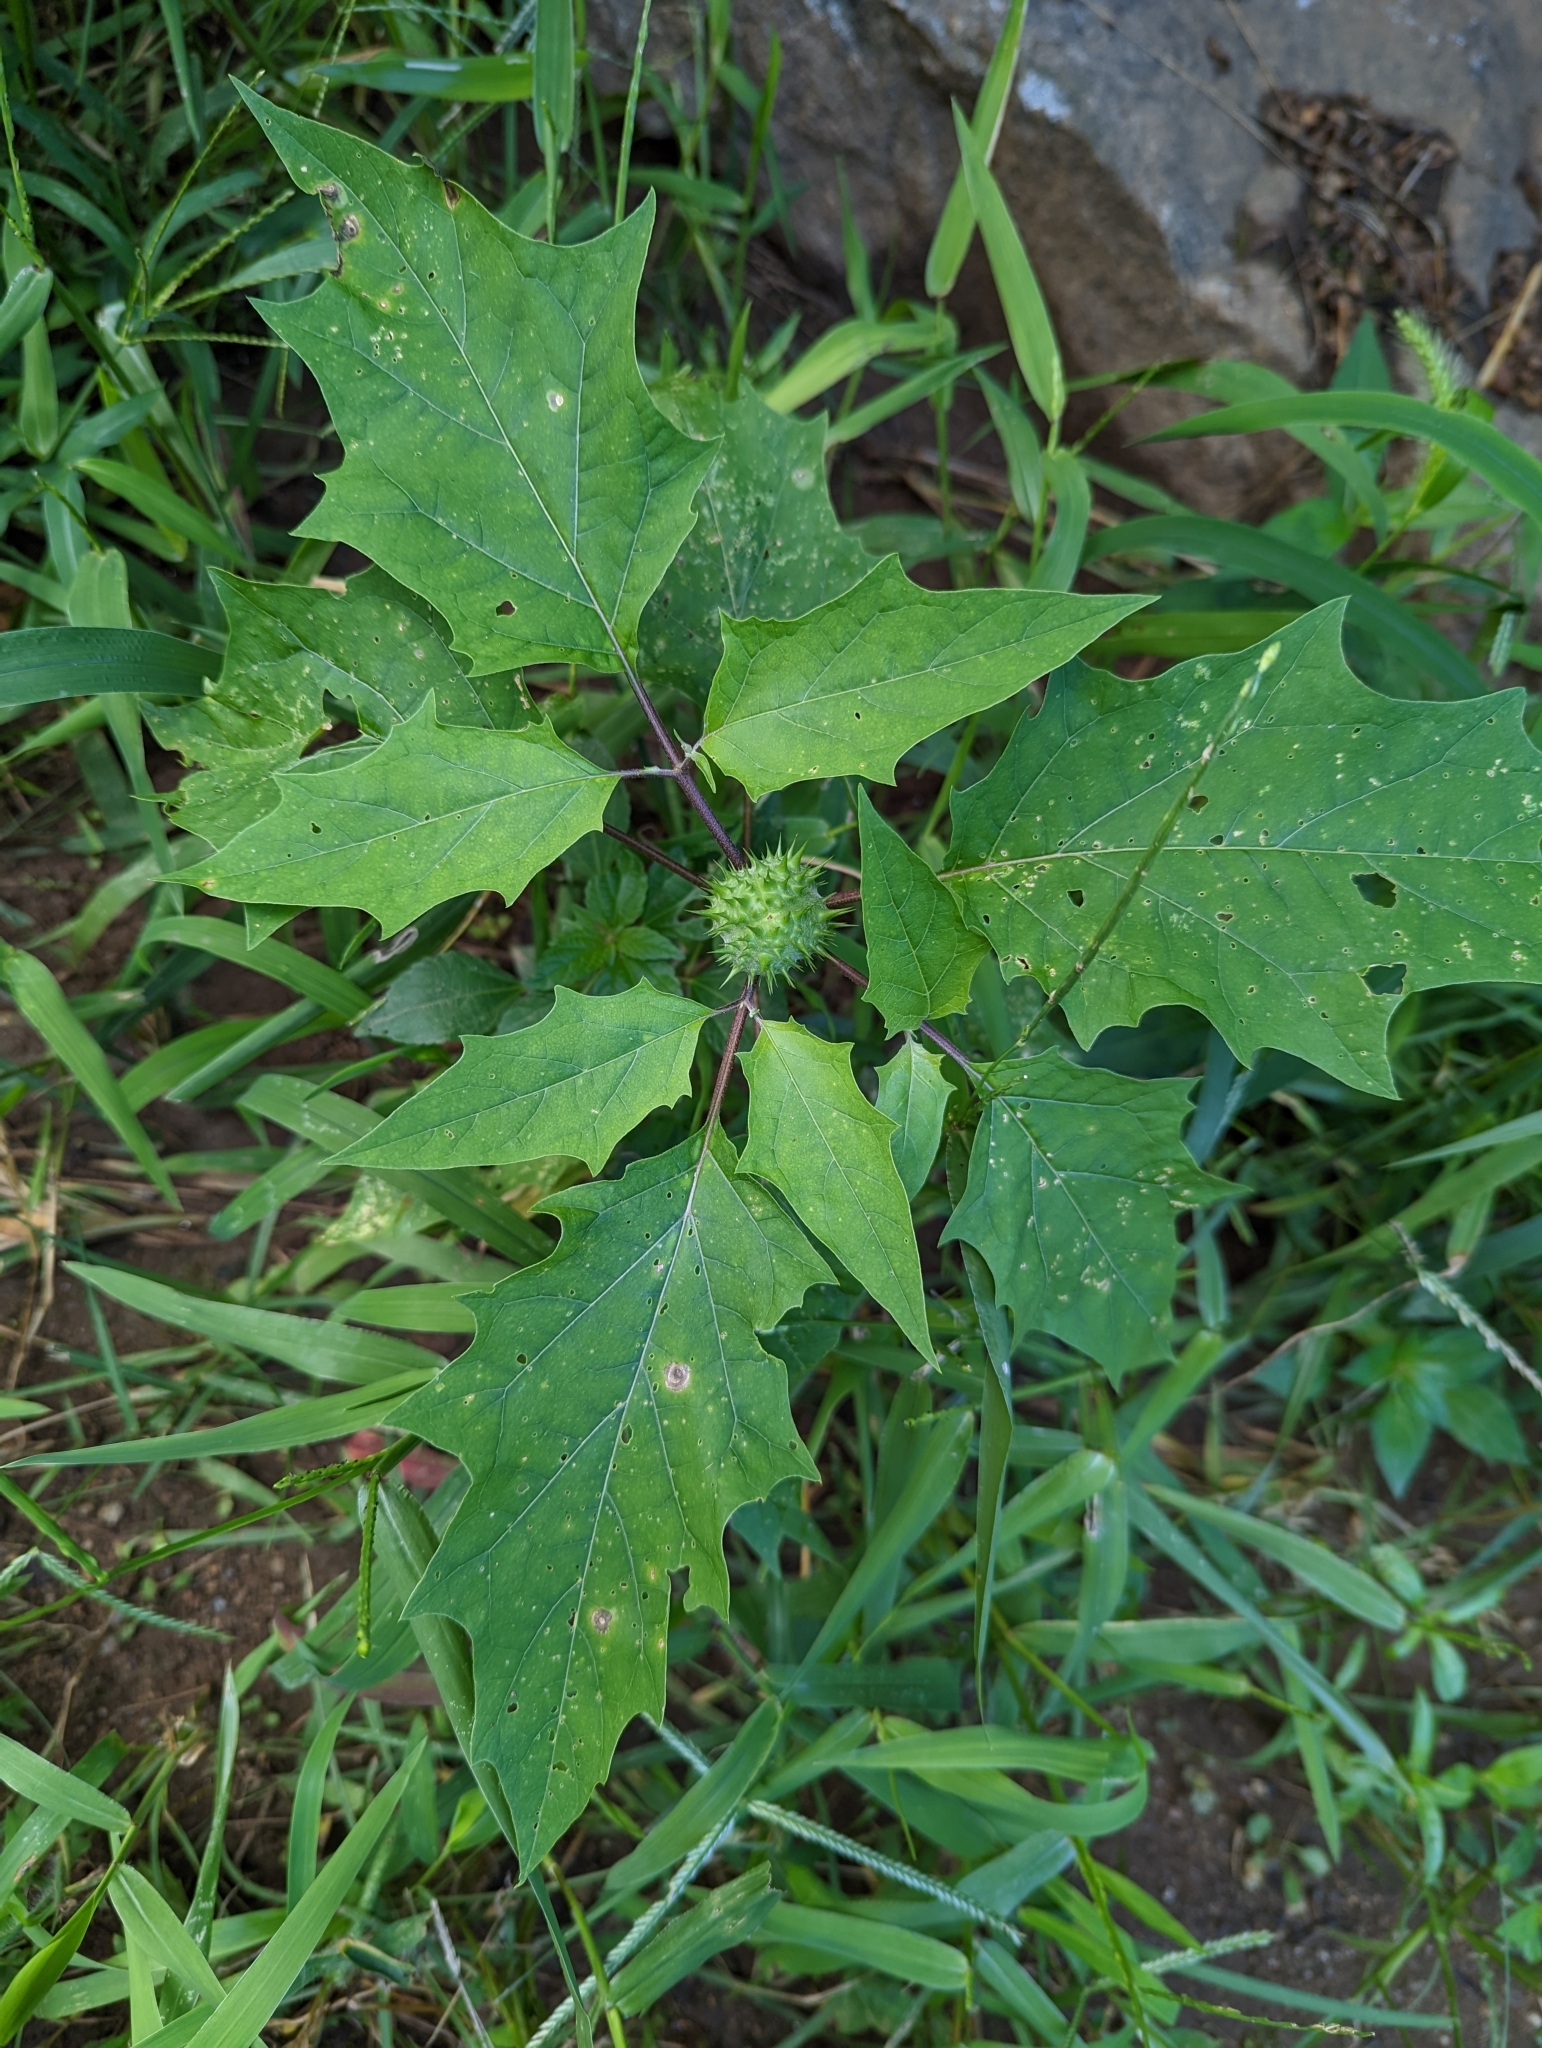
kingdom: Plantae
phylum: Tracheophyta
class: Magnoliopsida
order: Solanales
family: Solanaceae
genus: Datura
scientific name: Datura stramonium
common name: Thorn-apple
